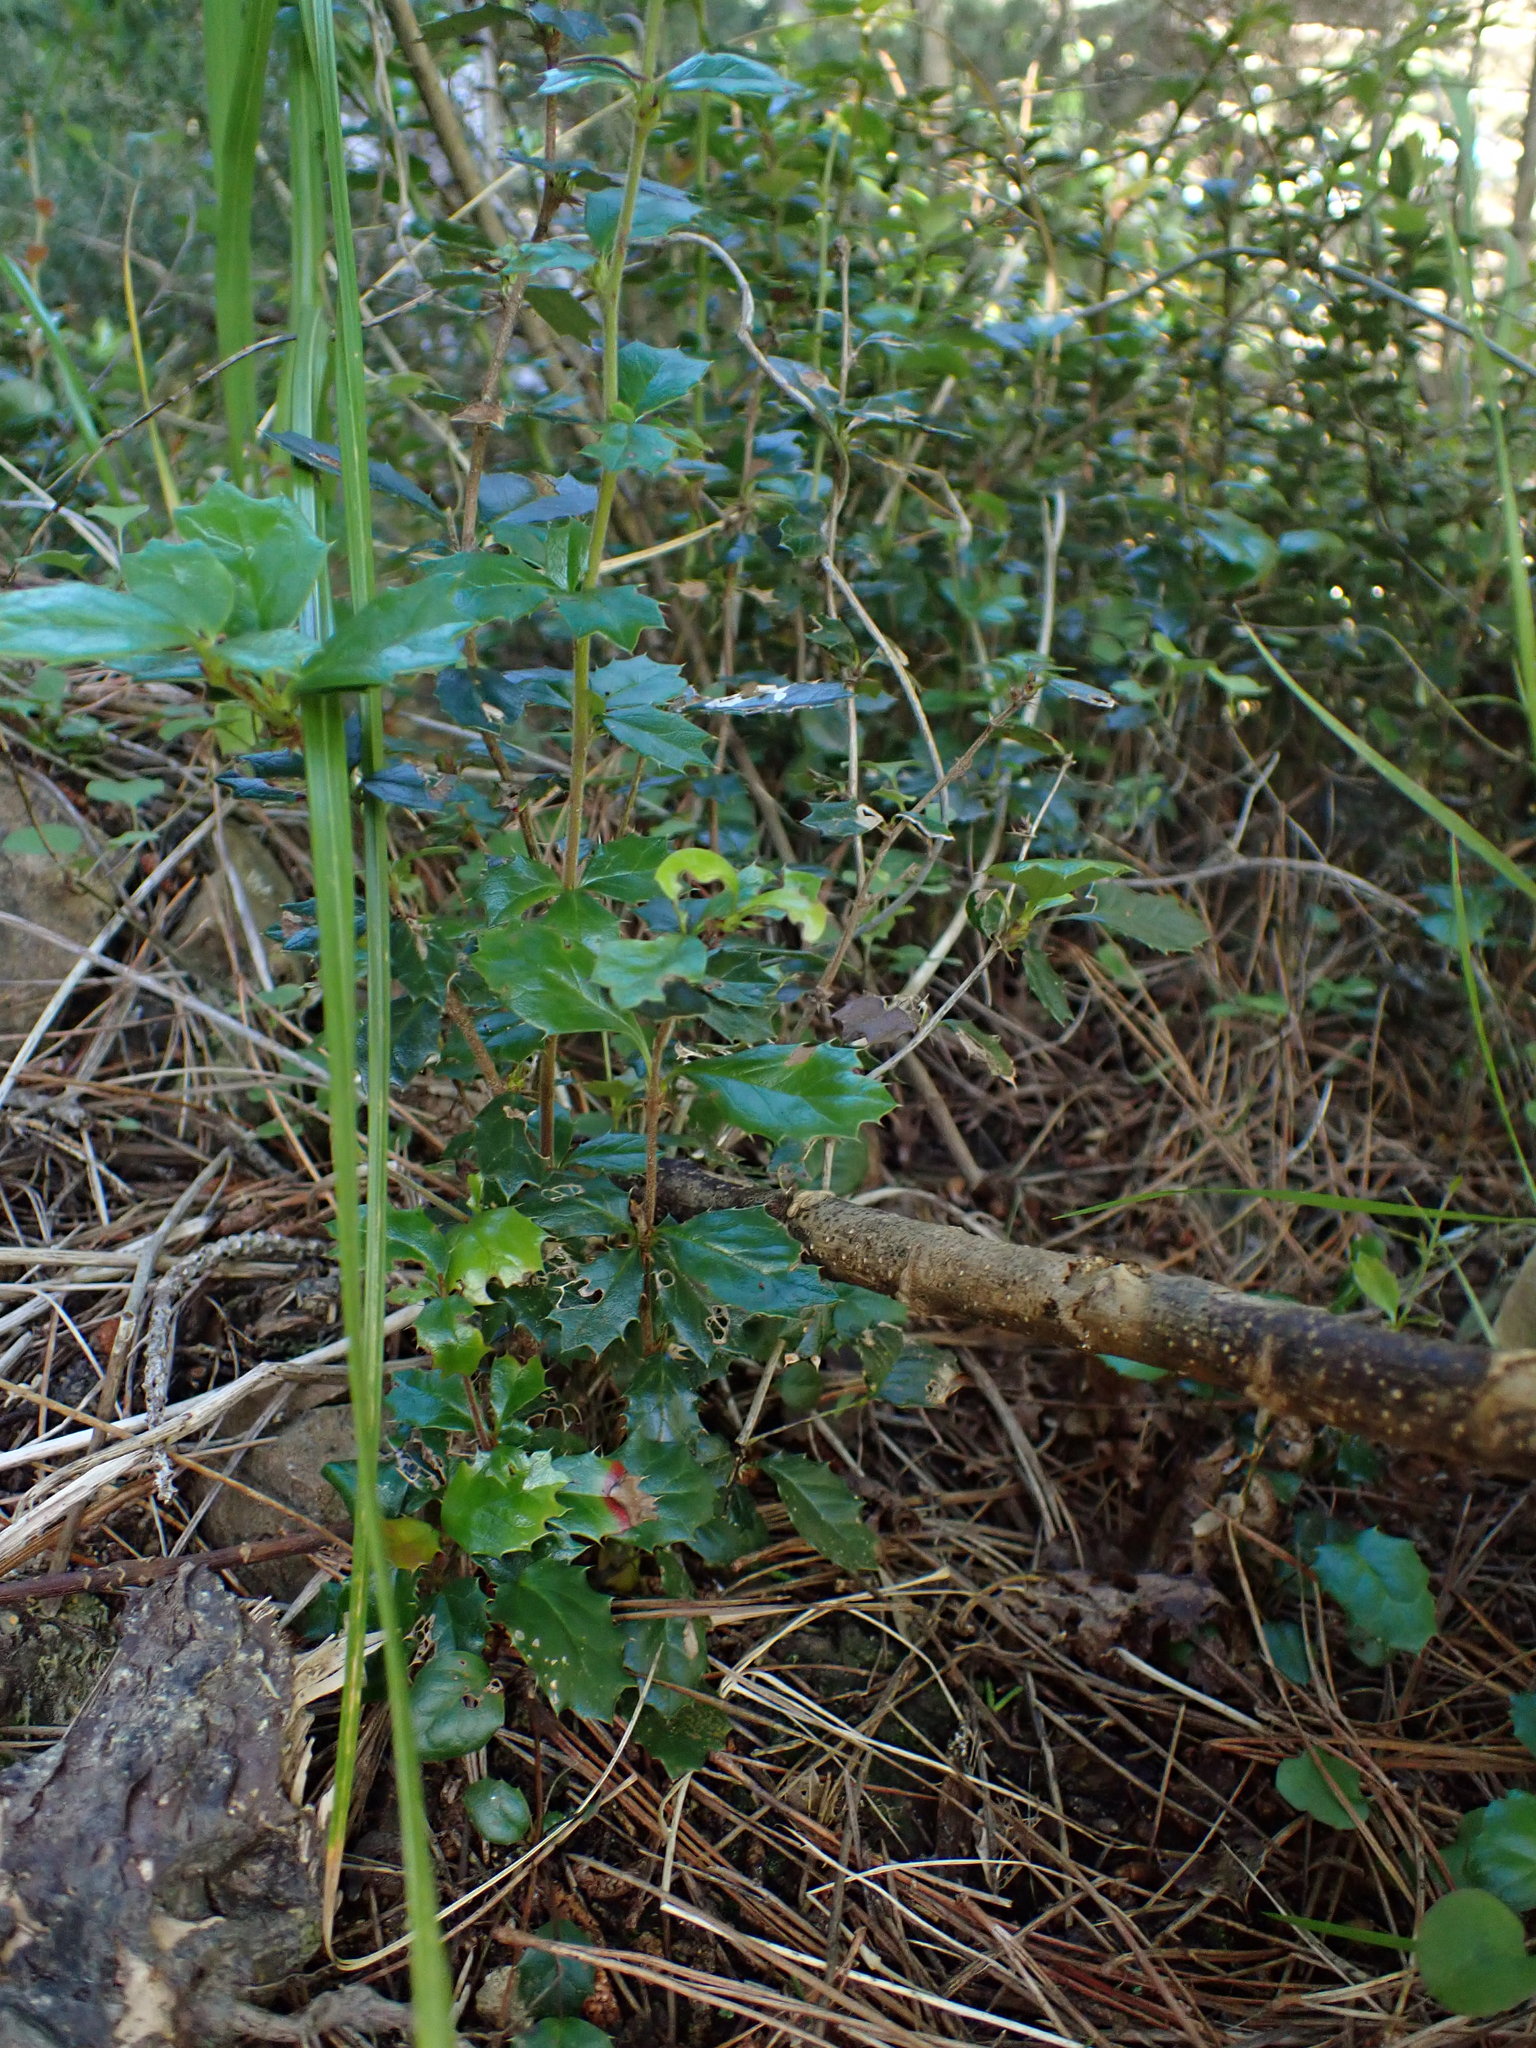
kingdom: Plantae
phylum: Tracheophyta
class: Magnoliopsida
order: Ranunculales
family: Berberidaceae
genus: Berberis
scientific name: Berberis darwinii
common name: Darwin's barberry
